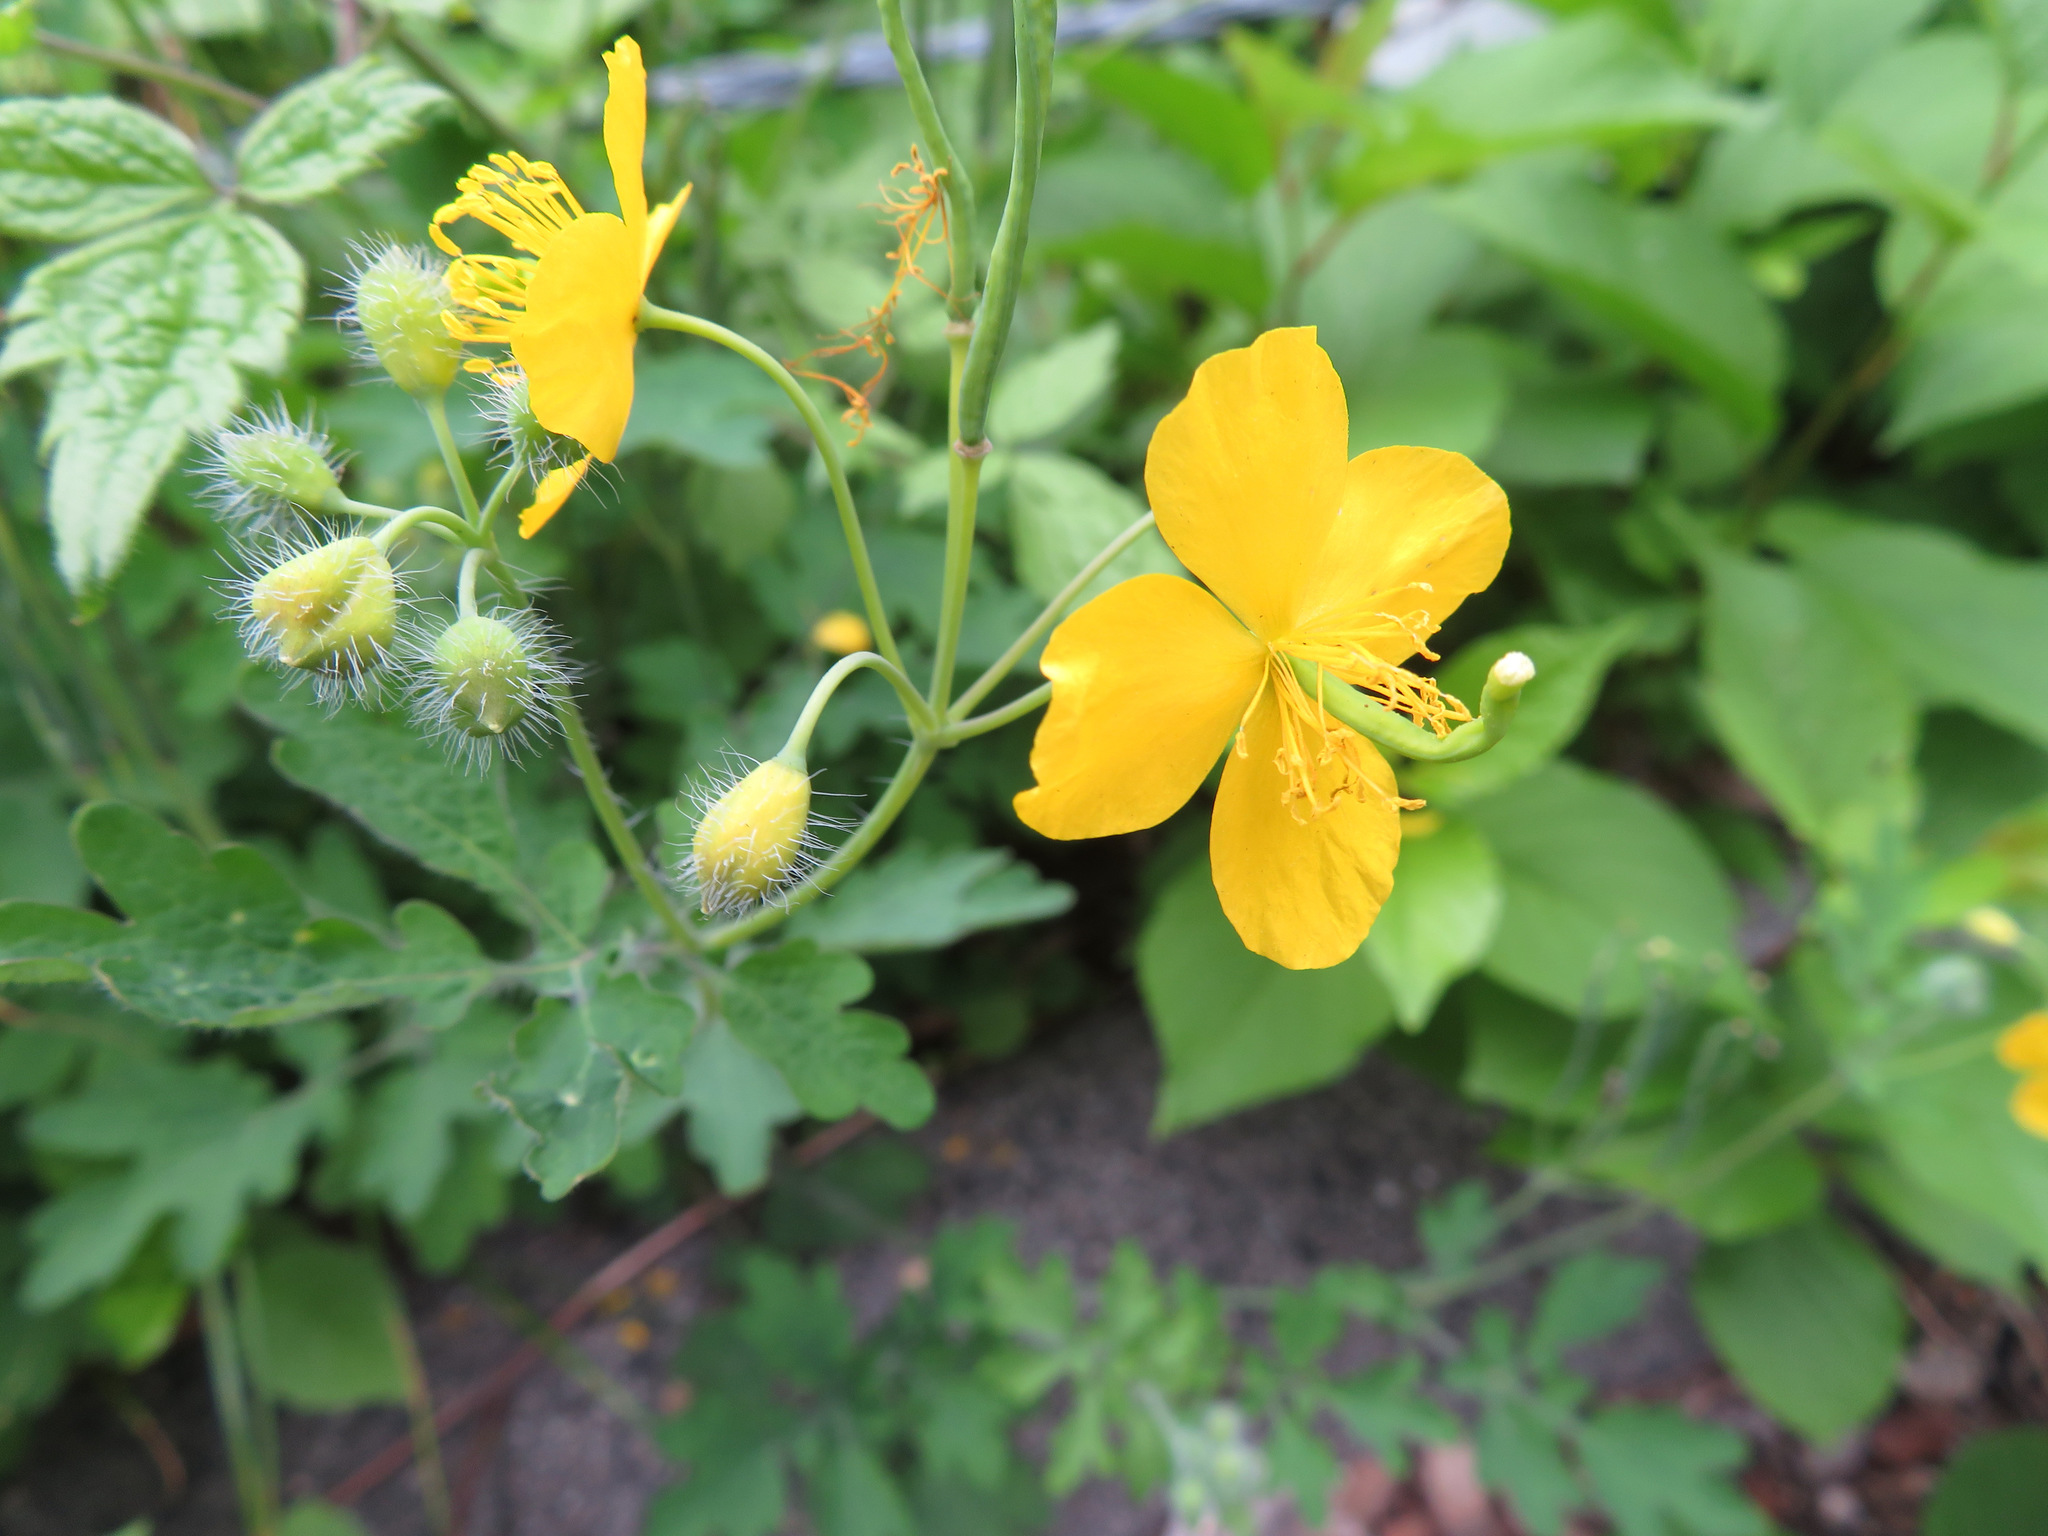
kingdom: Plantae
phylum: Tracheophyta
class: Magnoliopsida
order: Ranunculales
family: Papaveraceae
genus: Chelidonium
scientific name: Chelidonium majus
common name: Greater celandine
